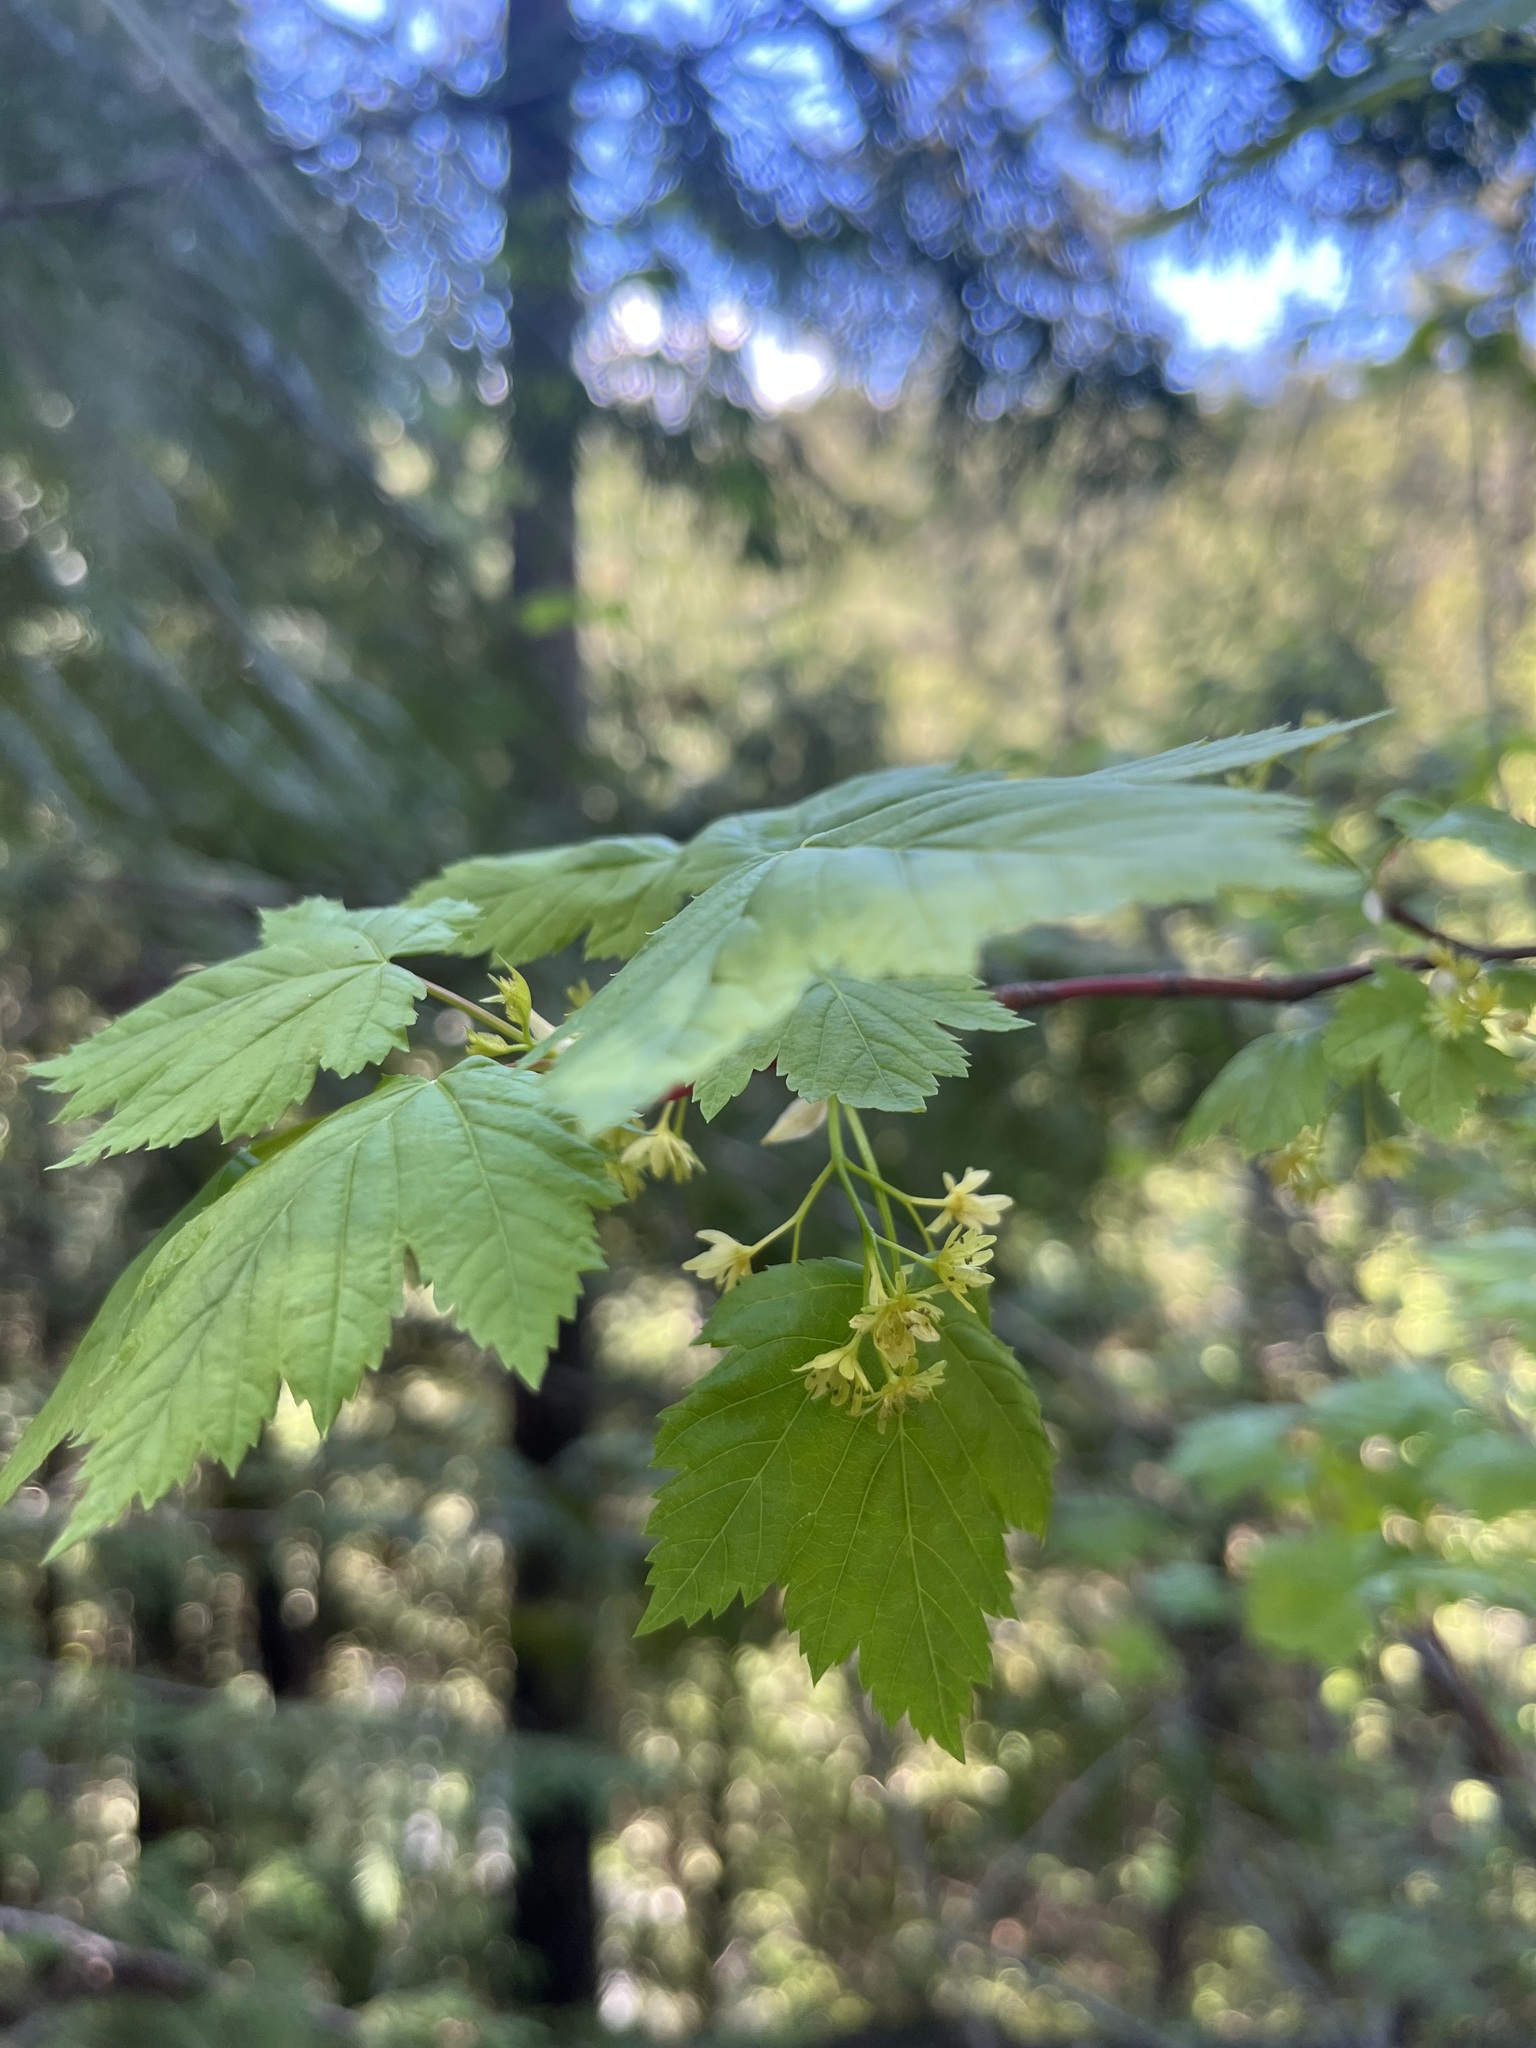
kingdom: Plantae
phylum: Tracheophyta
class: Magnoliopsida
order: Sapindales
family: Sapindaceae
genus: Acer
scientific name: Acer glabrum
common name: Rocky mountain maple
